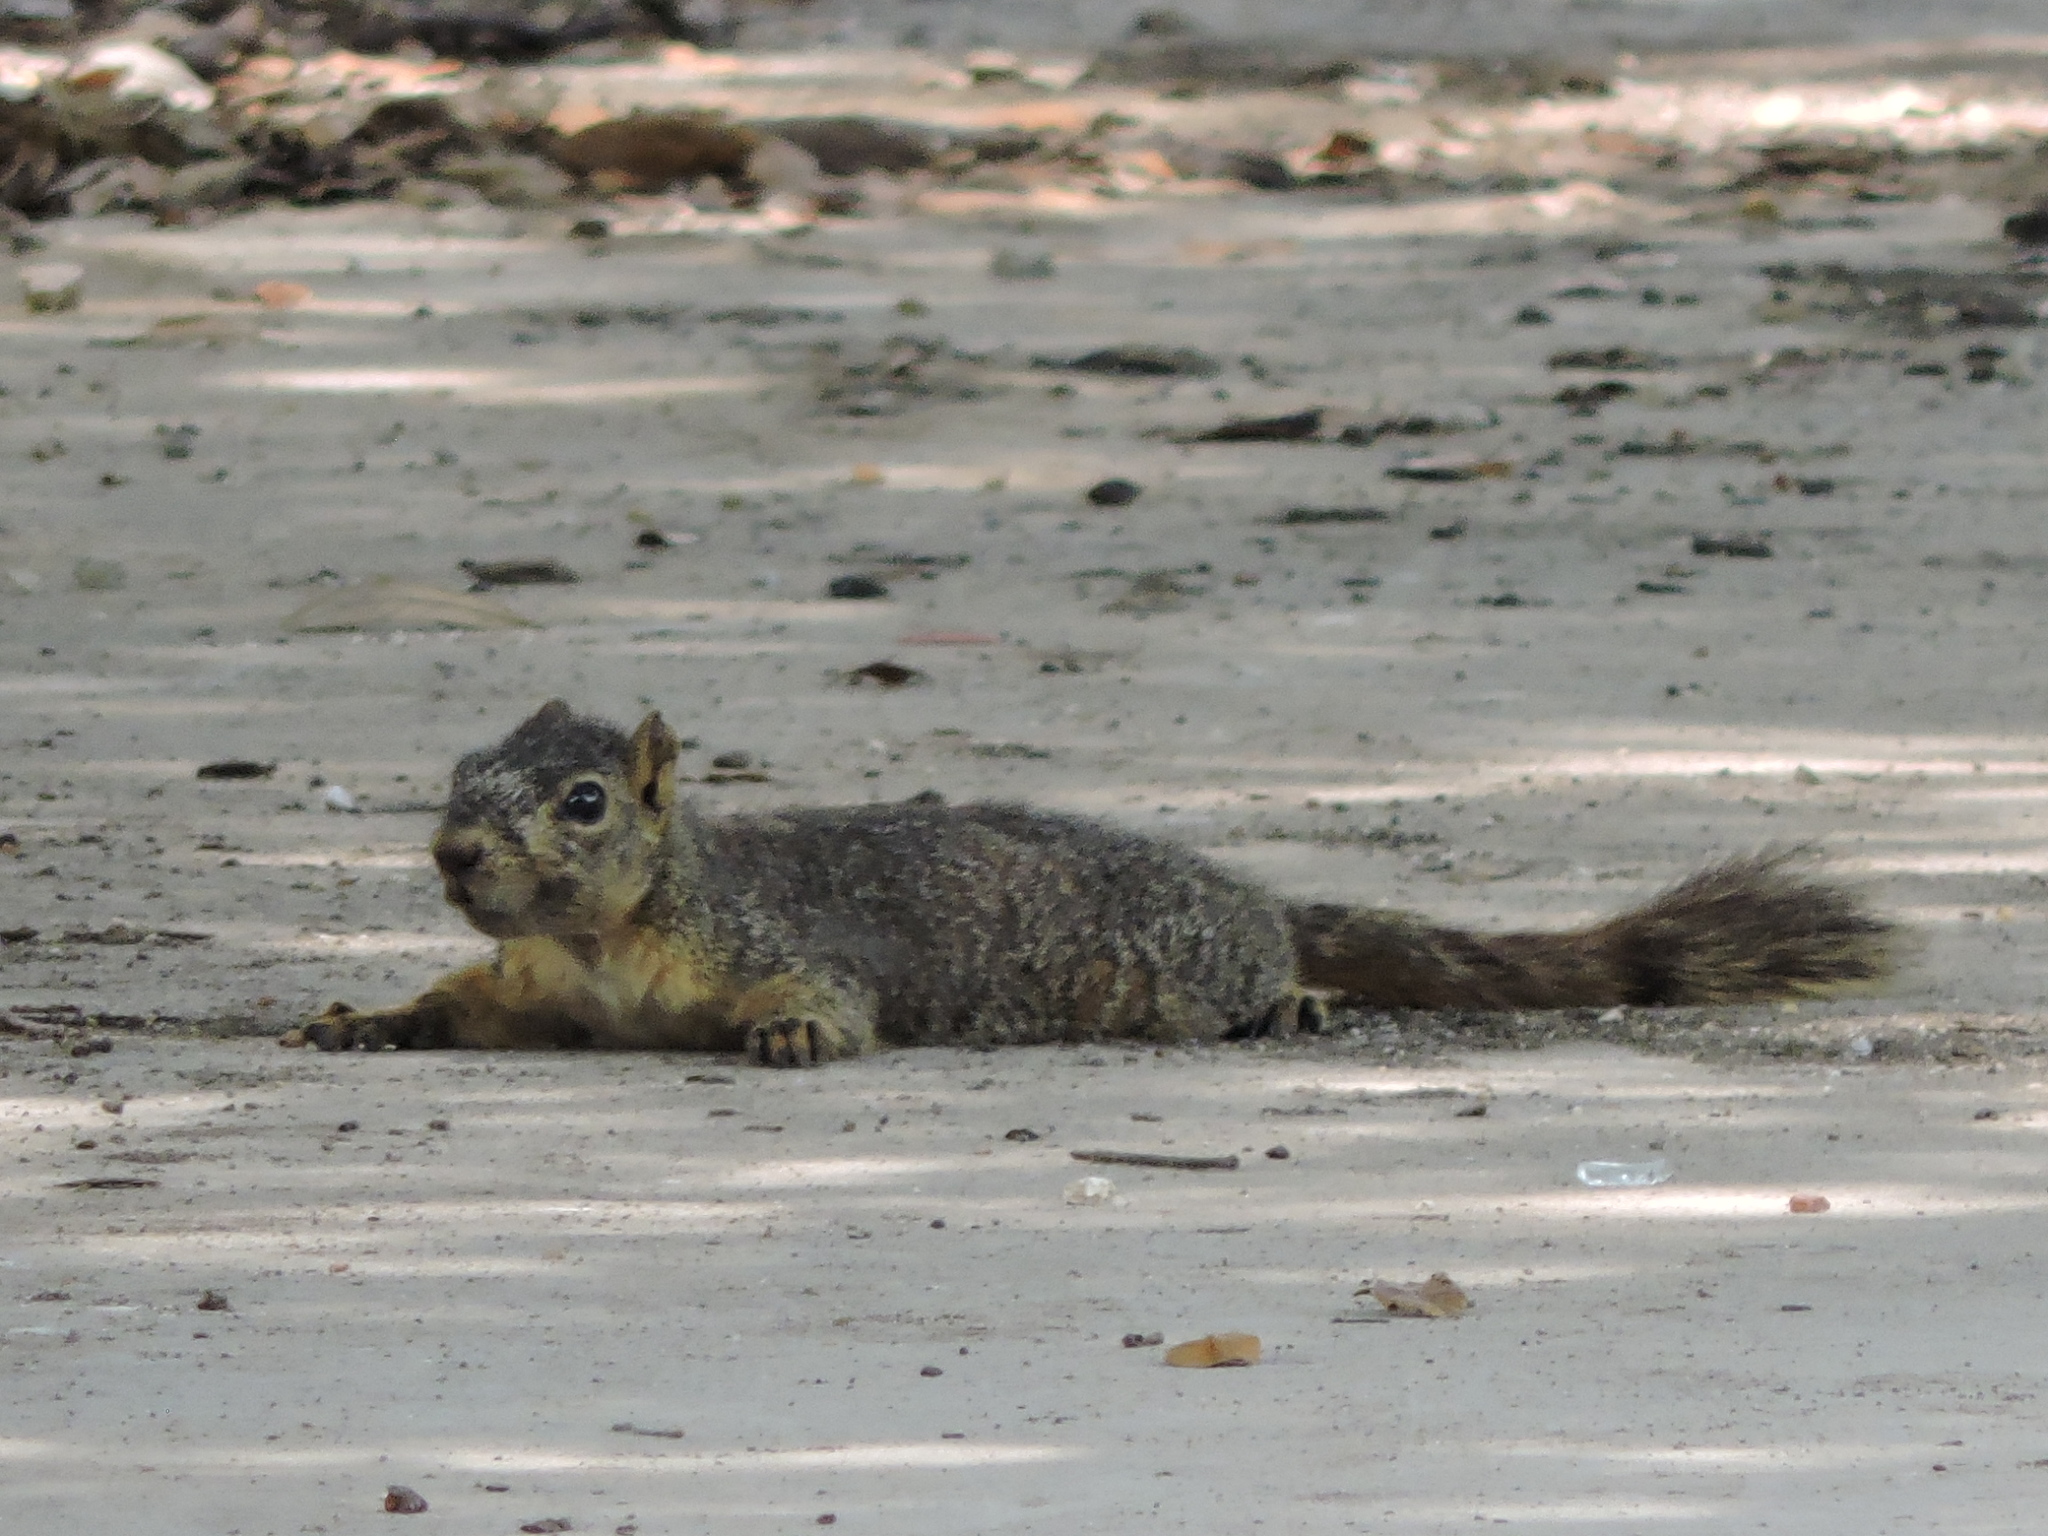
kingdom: Animalia
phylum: Chordata
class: Mammalia
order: Rodentia
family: Sciuridae
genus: Sciurus
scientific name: Sciurus niger
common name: Fox squirrel
